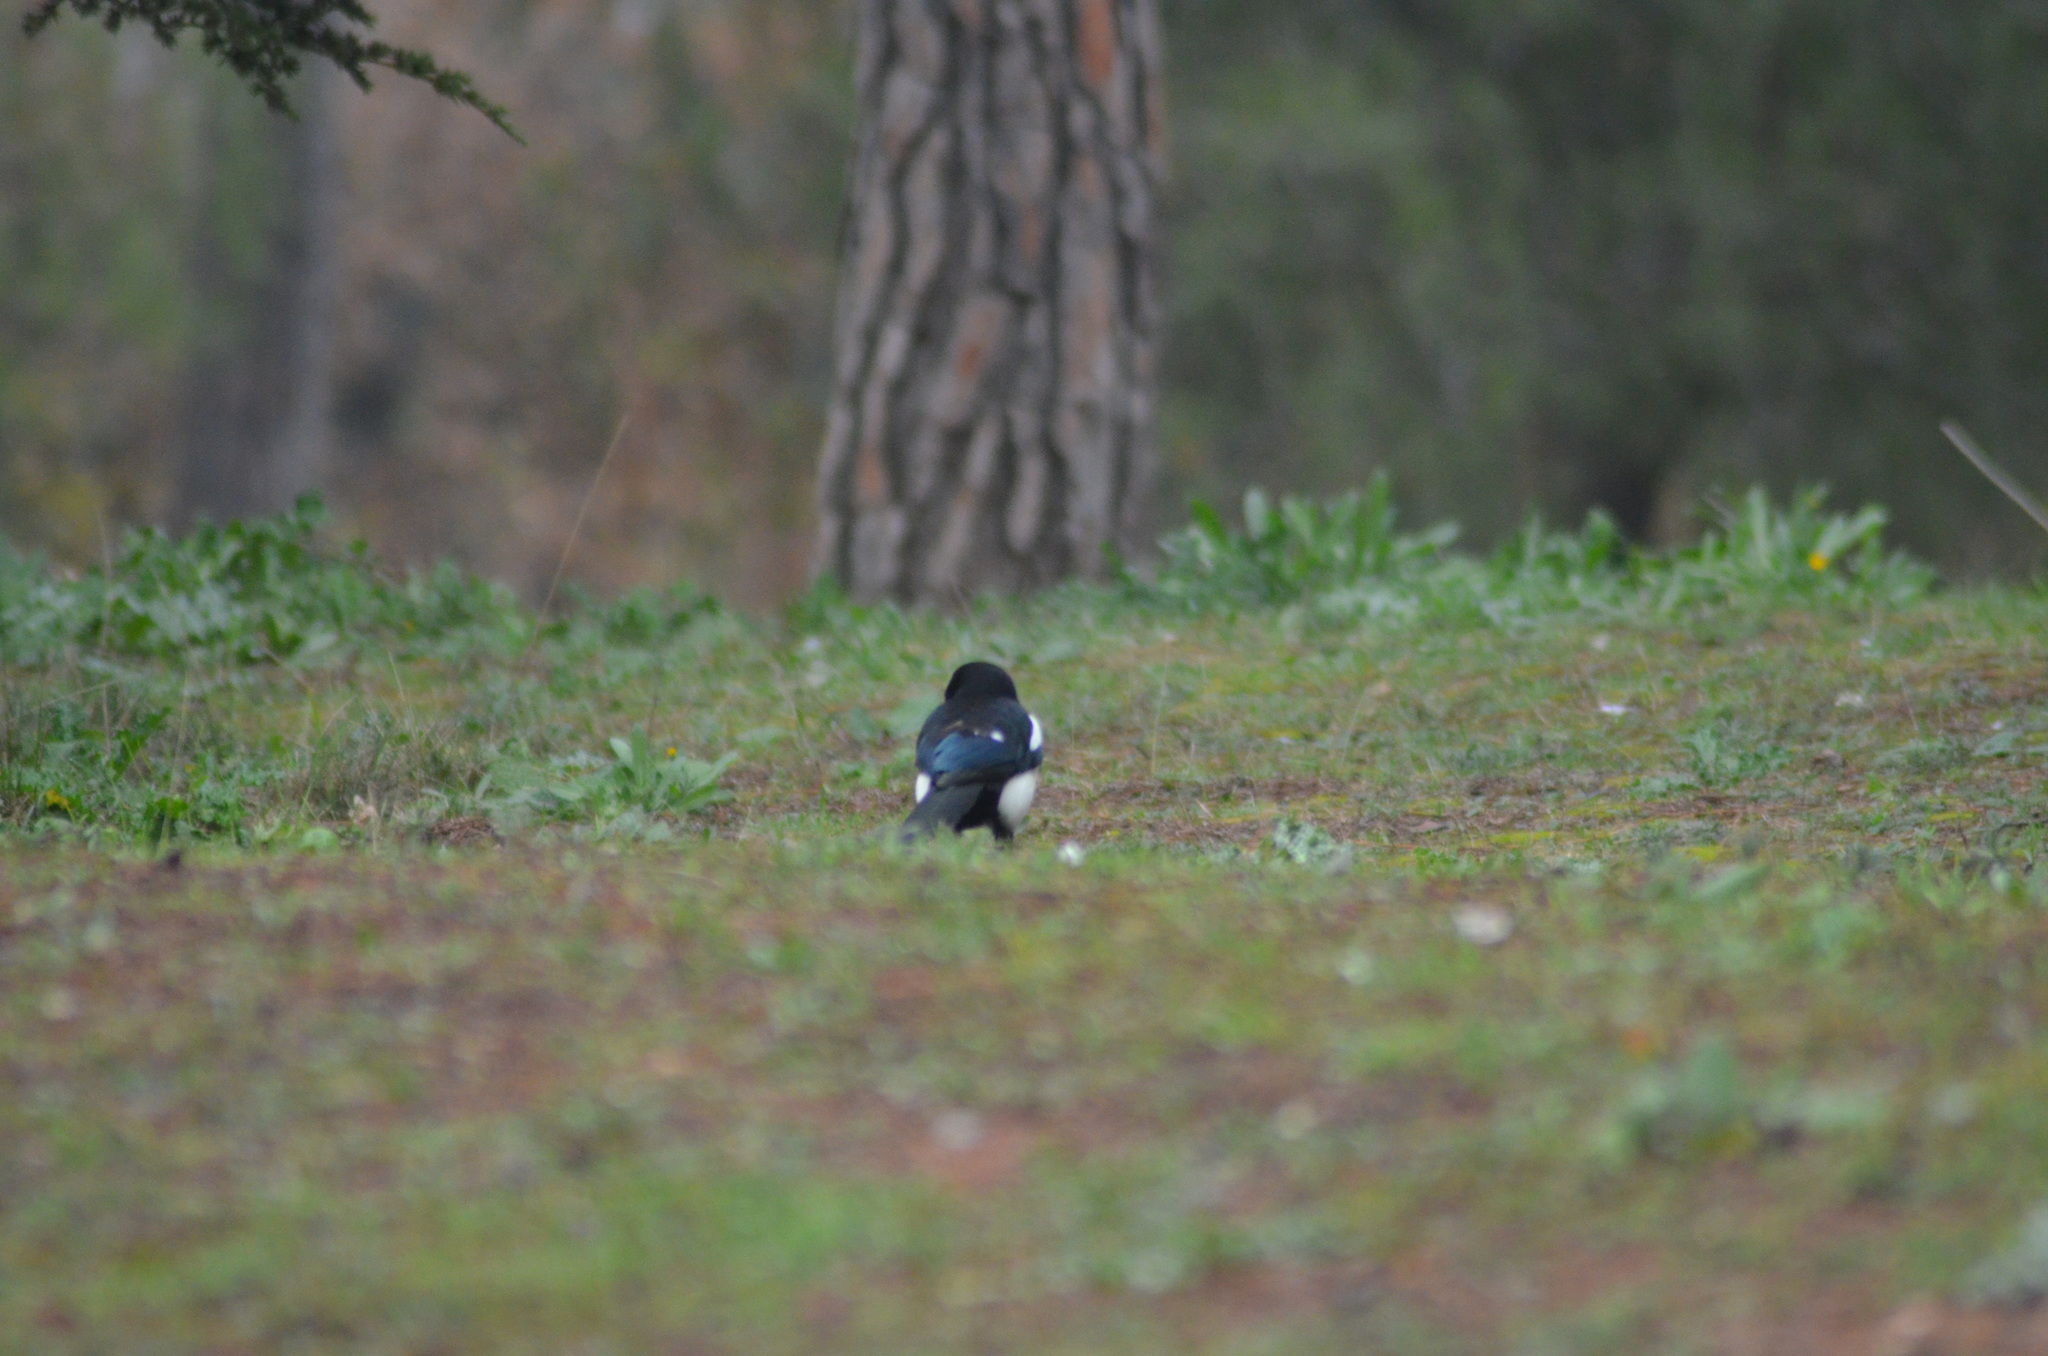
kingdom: Animalia
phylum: Chordata
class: Aves
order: Passeriformes
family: Corvidae
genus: Pica
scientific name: Pica pica
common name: Eurasian magpie
